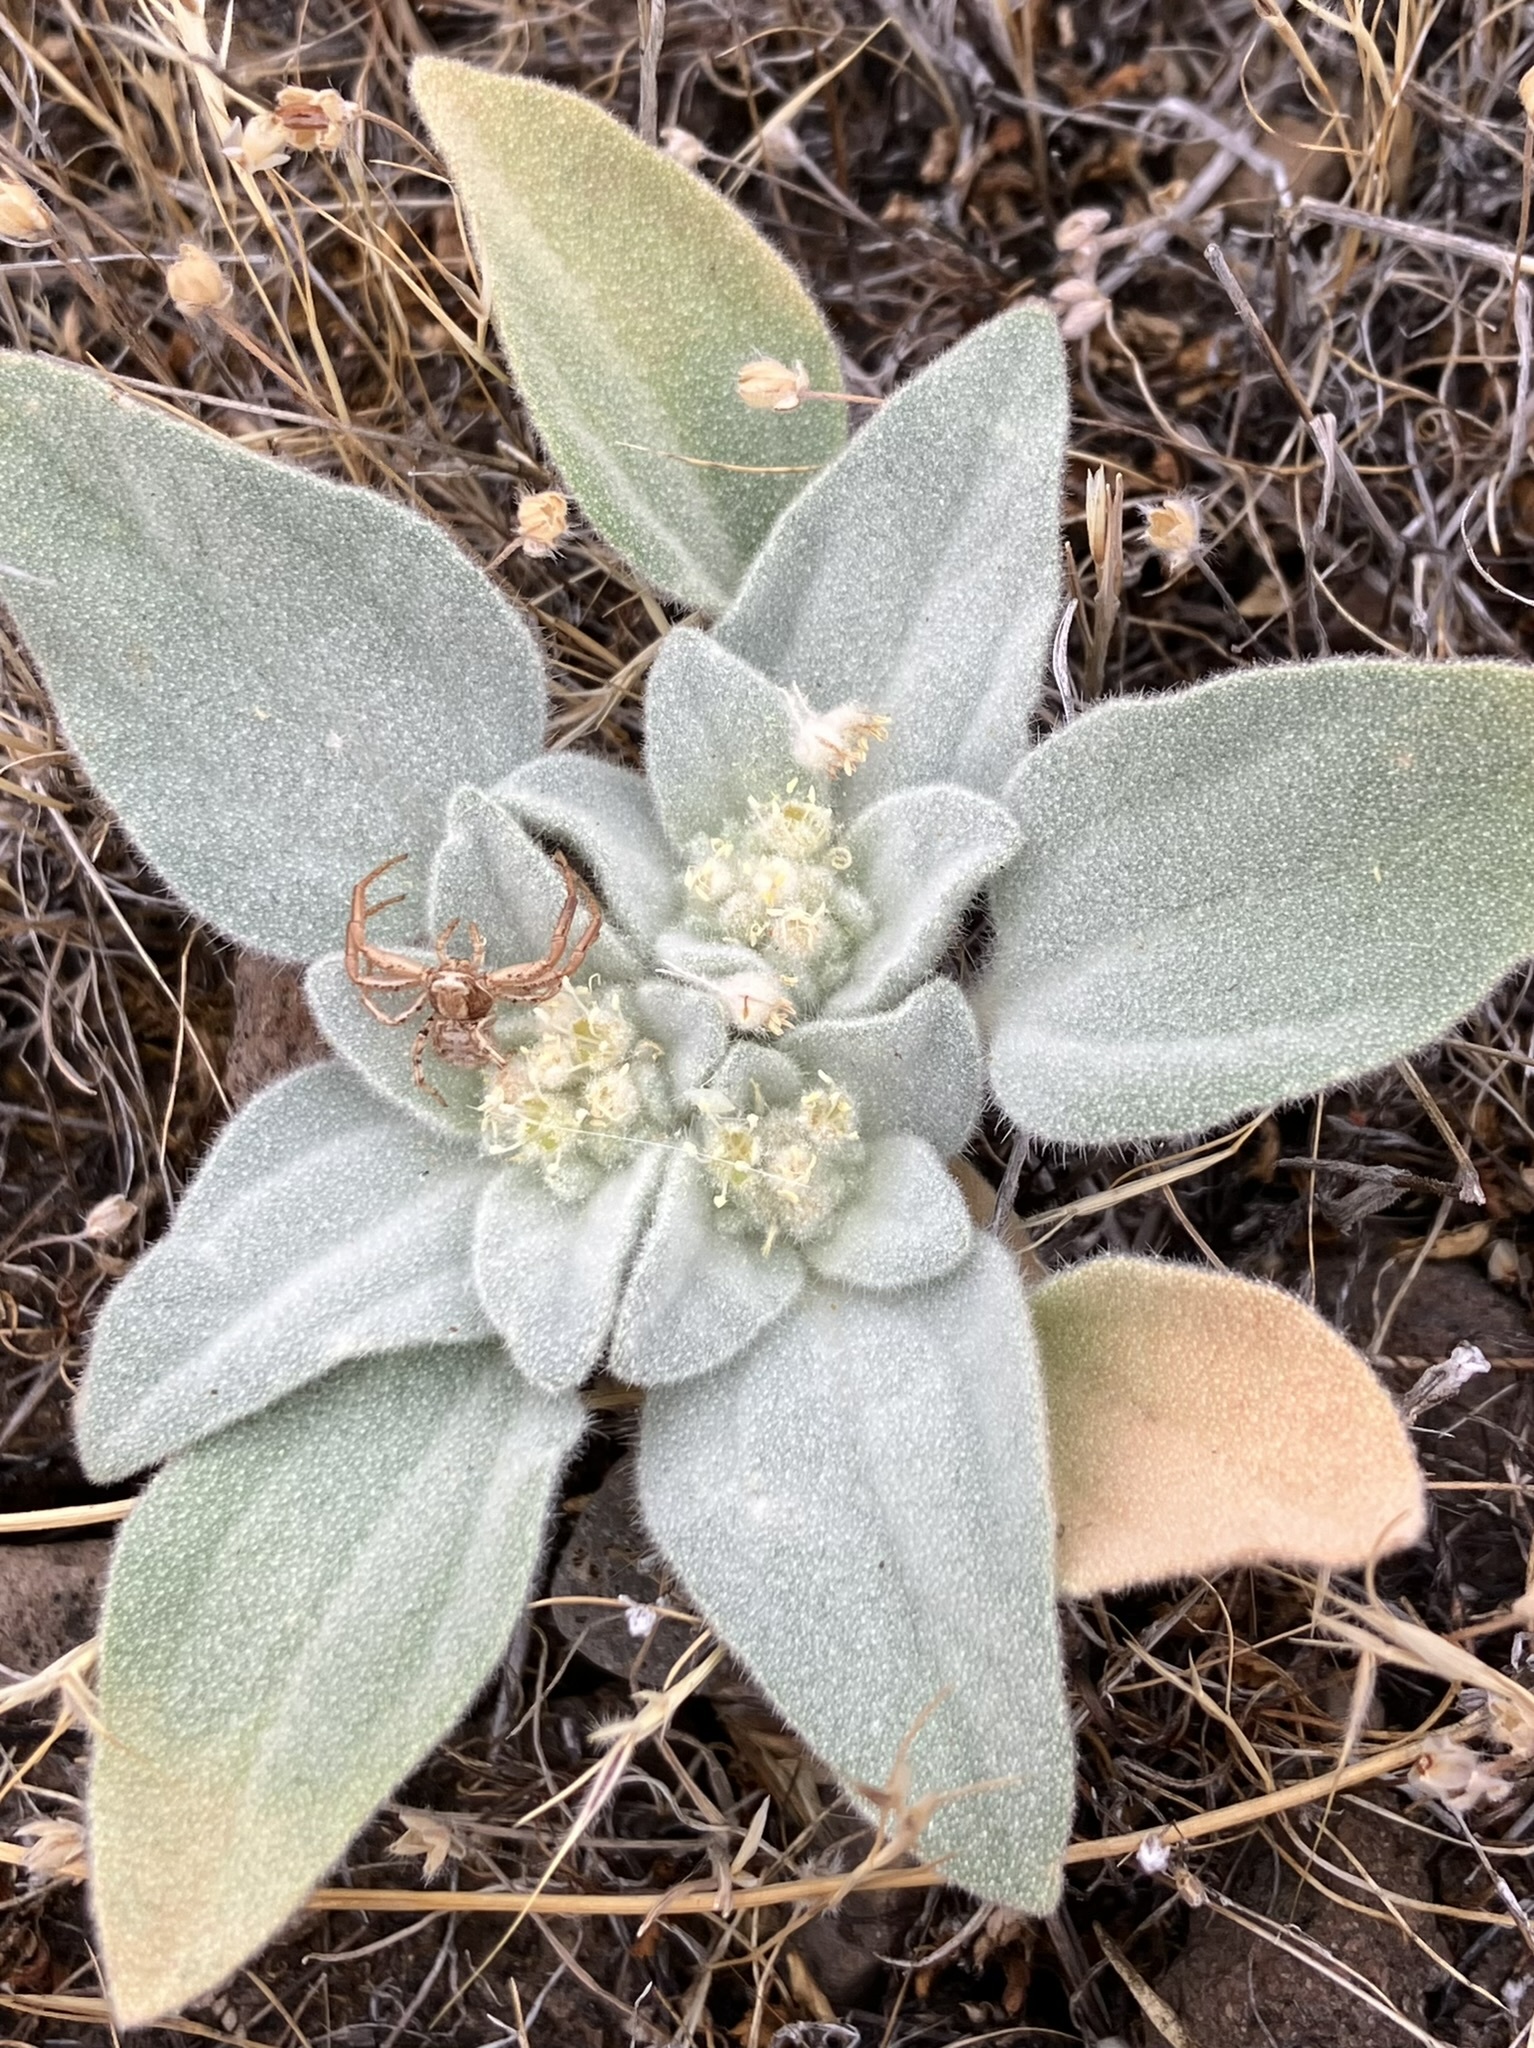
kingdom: Plantae
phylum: Tracheophyta
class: Magnoliopsida
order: Malpighiales
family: Euphorbiaceae
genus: Croton
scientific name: Croton setiger
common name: Dove weed
